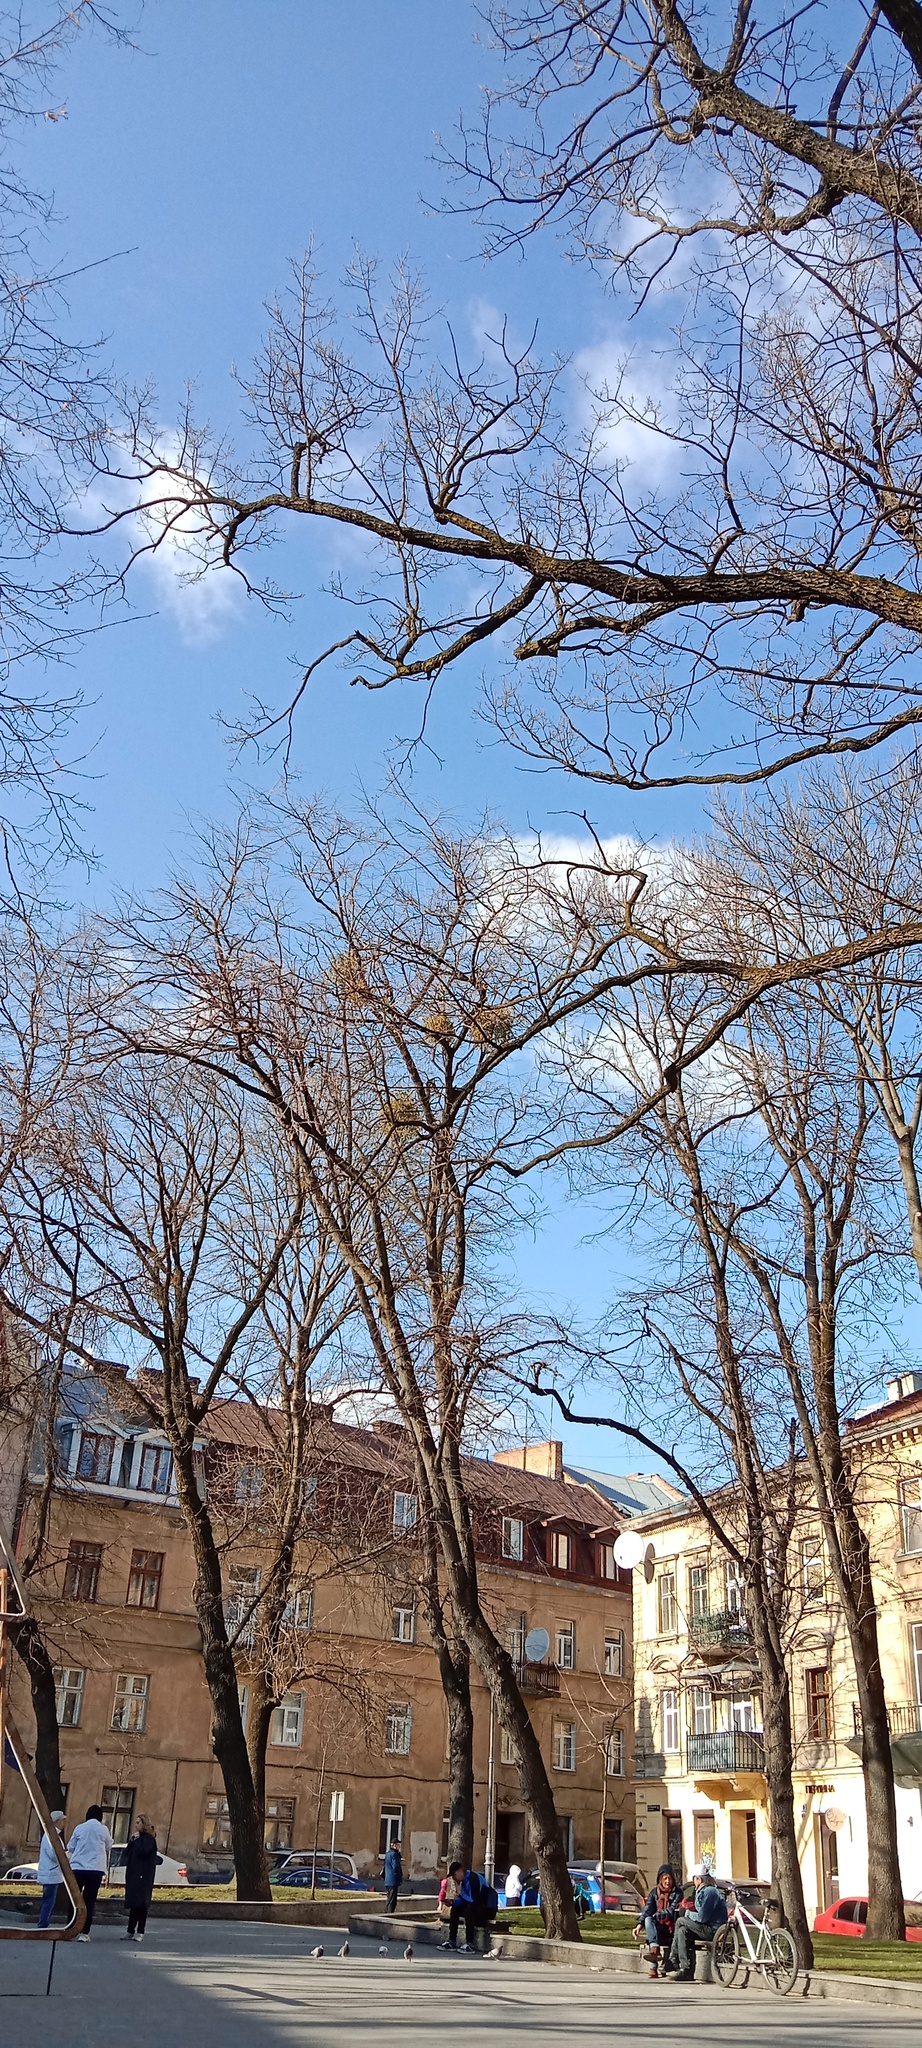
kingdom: Plantae
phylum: Tracheophyta
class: Magnoliopsida
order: Santalales
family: Viscaceae
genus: Viscum
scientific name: Viscum album
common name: Mistletoe
